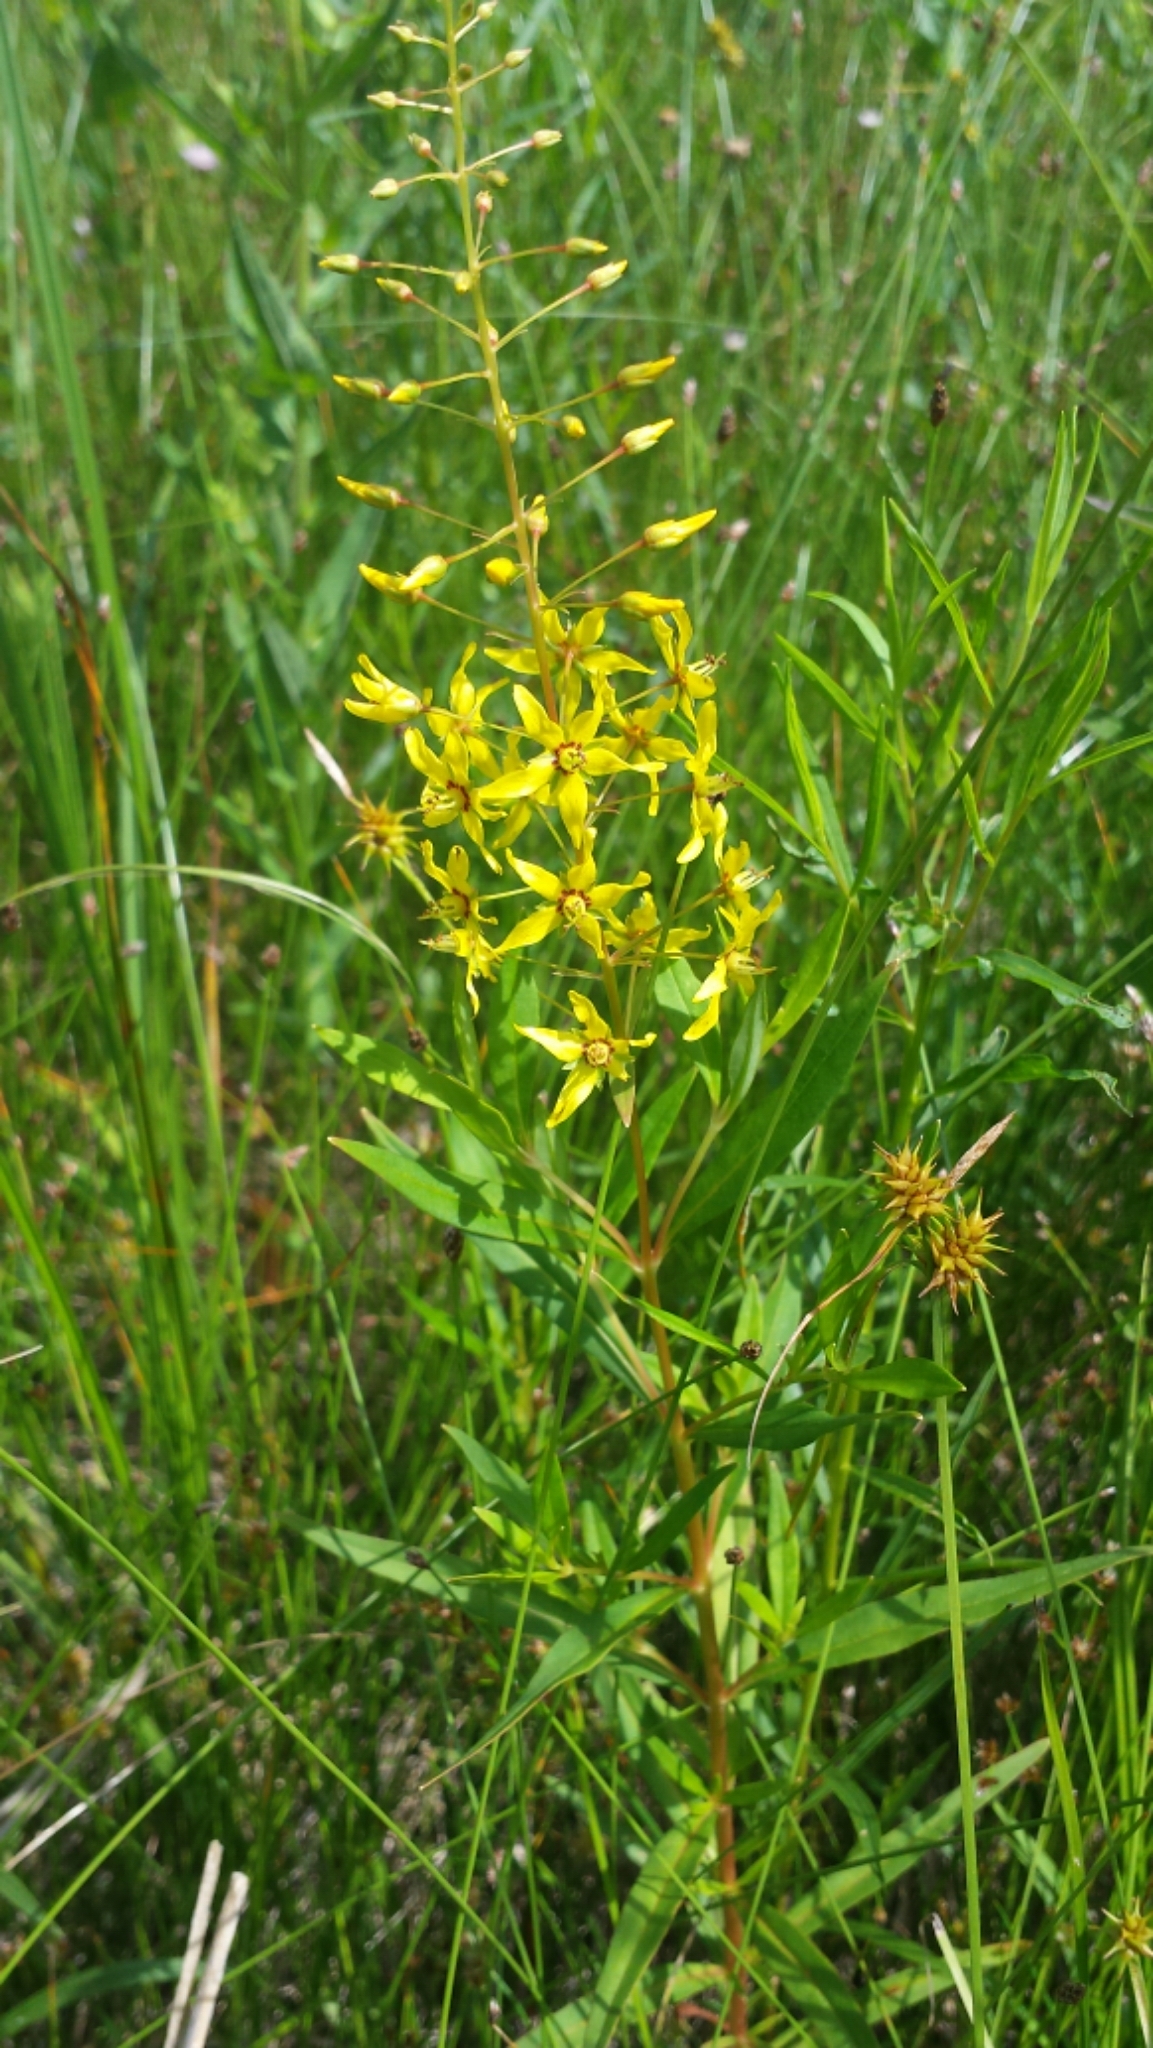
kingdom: Plantae
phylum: Tracheophyta
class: Magnoliopsida
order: Ericales
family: Primulaceae
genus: Lysimachia
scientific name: Lysimachia terrestris
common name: Lake loosestrife
